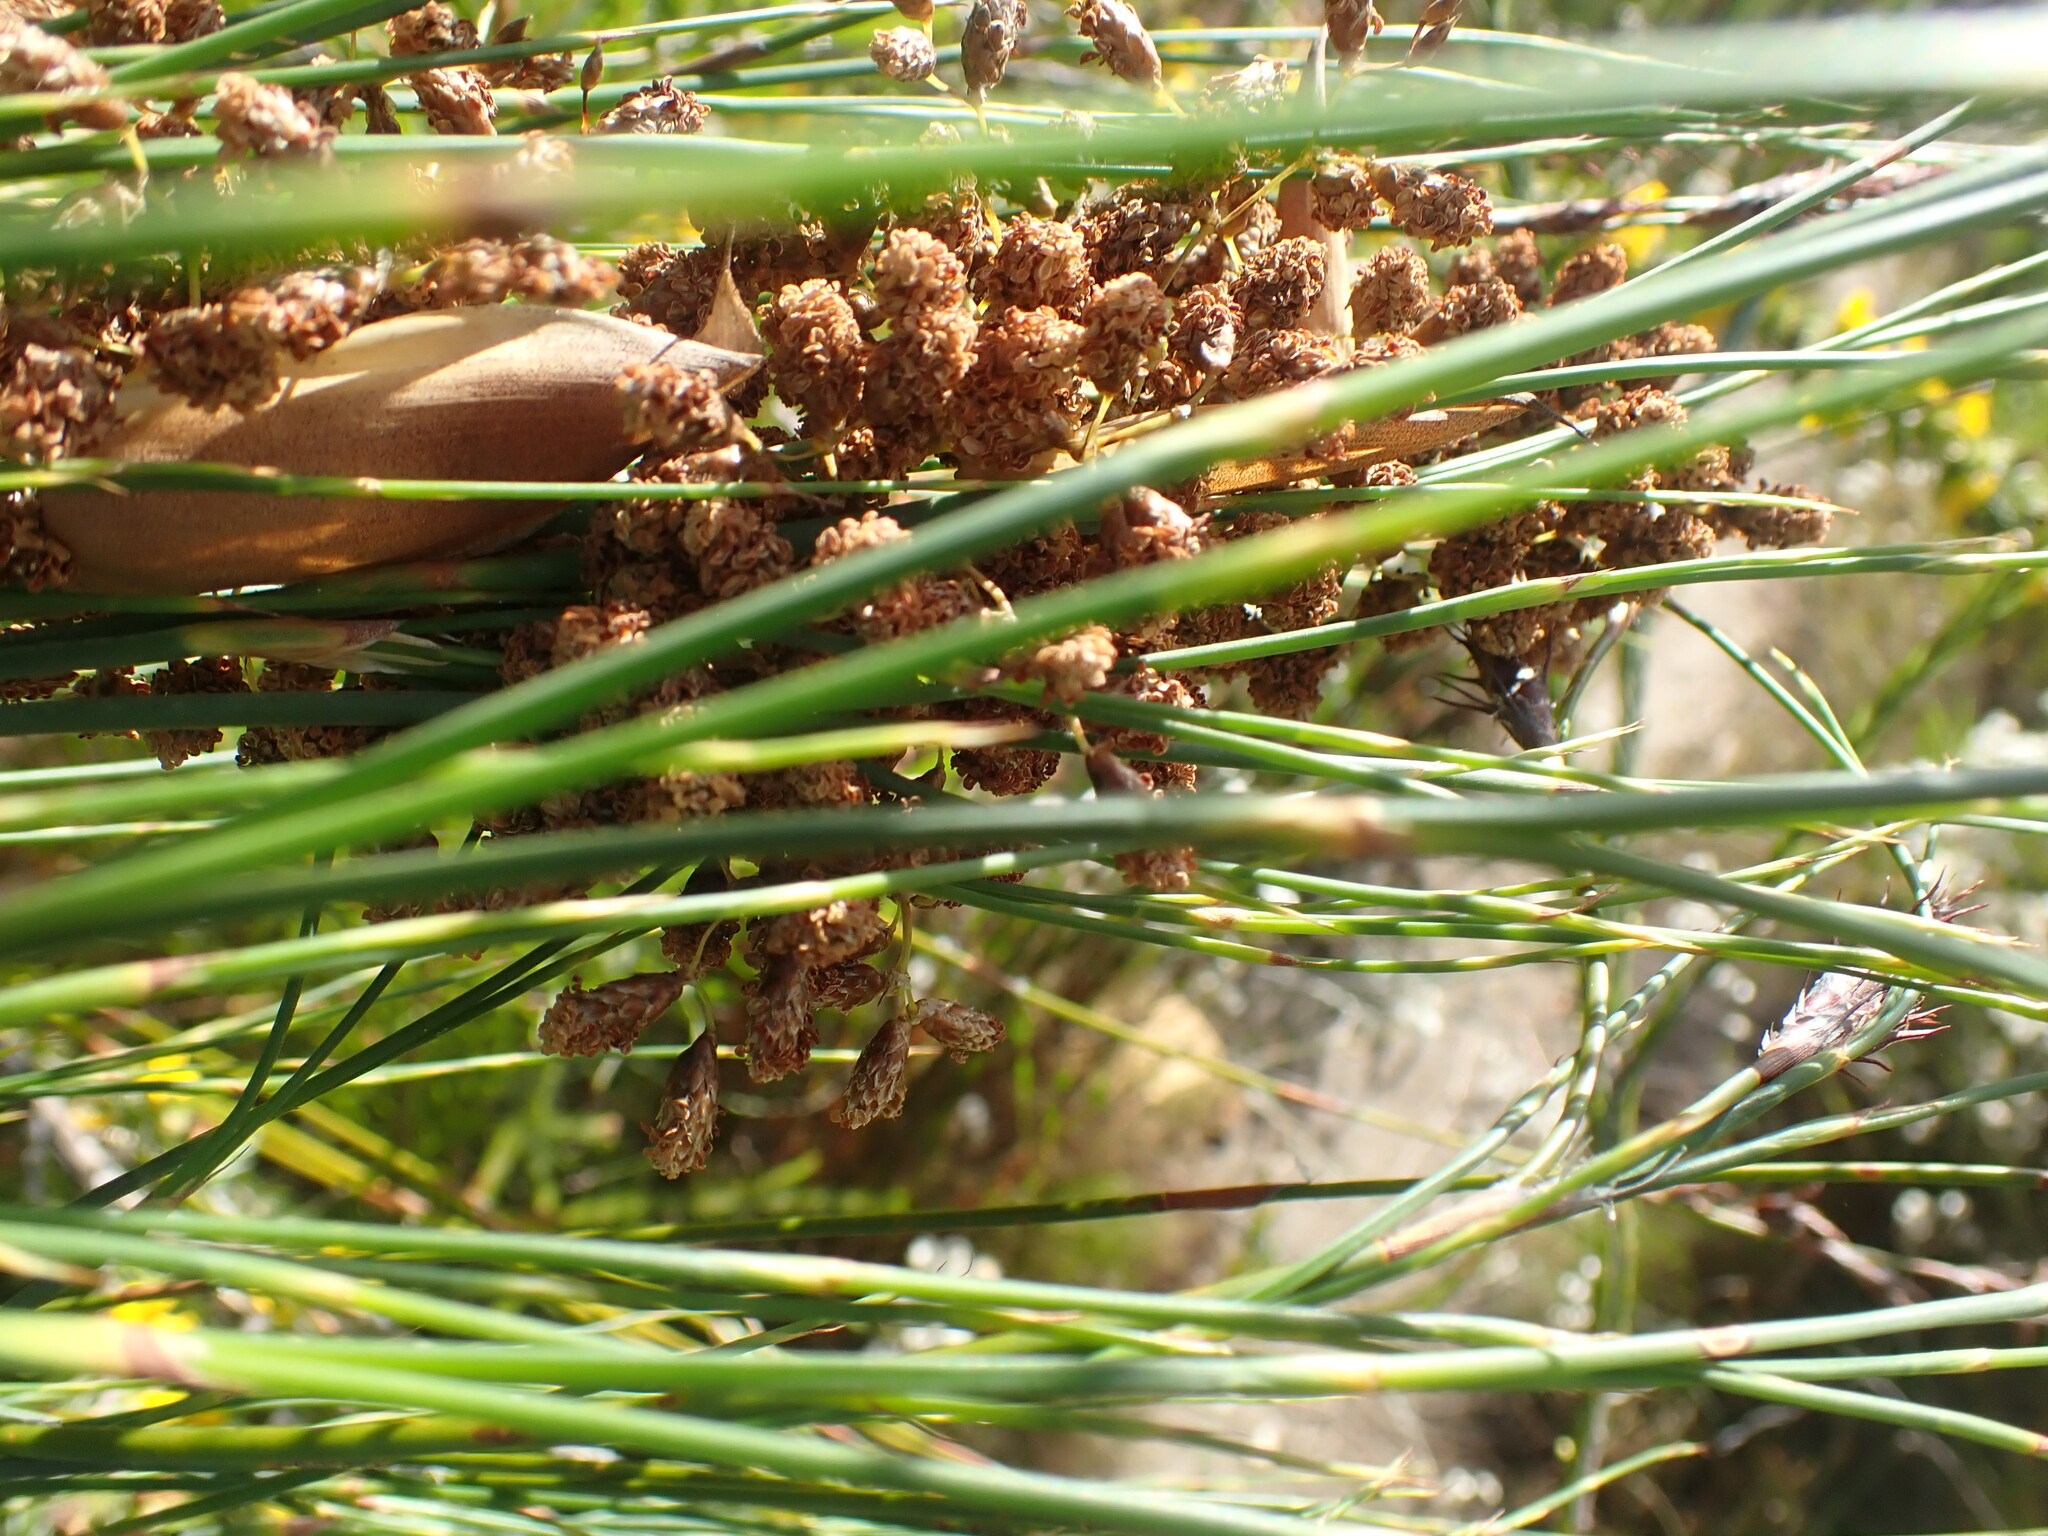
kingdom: Plantae
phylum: Tracheophyta
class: Liliopsida
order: Poales
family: Restionaceae
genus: Cannomois
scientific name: Cannomois virgata
